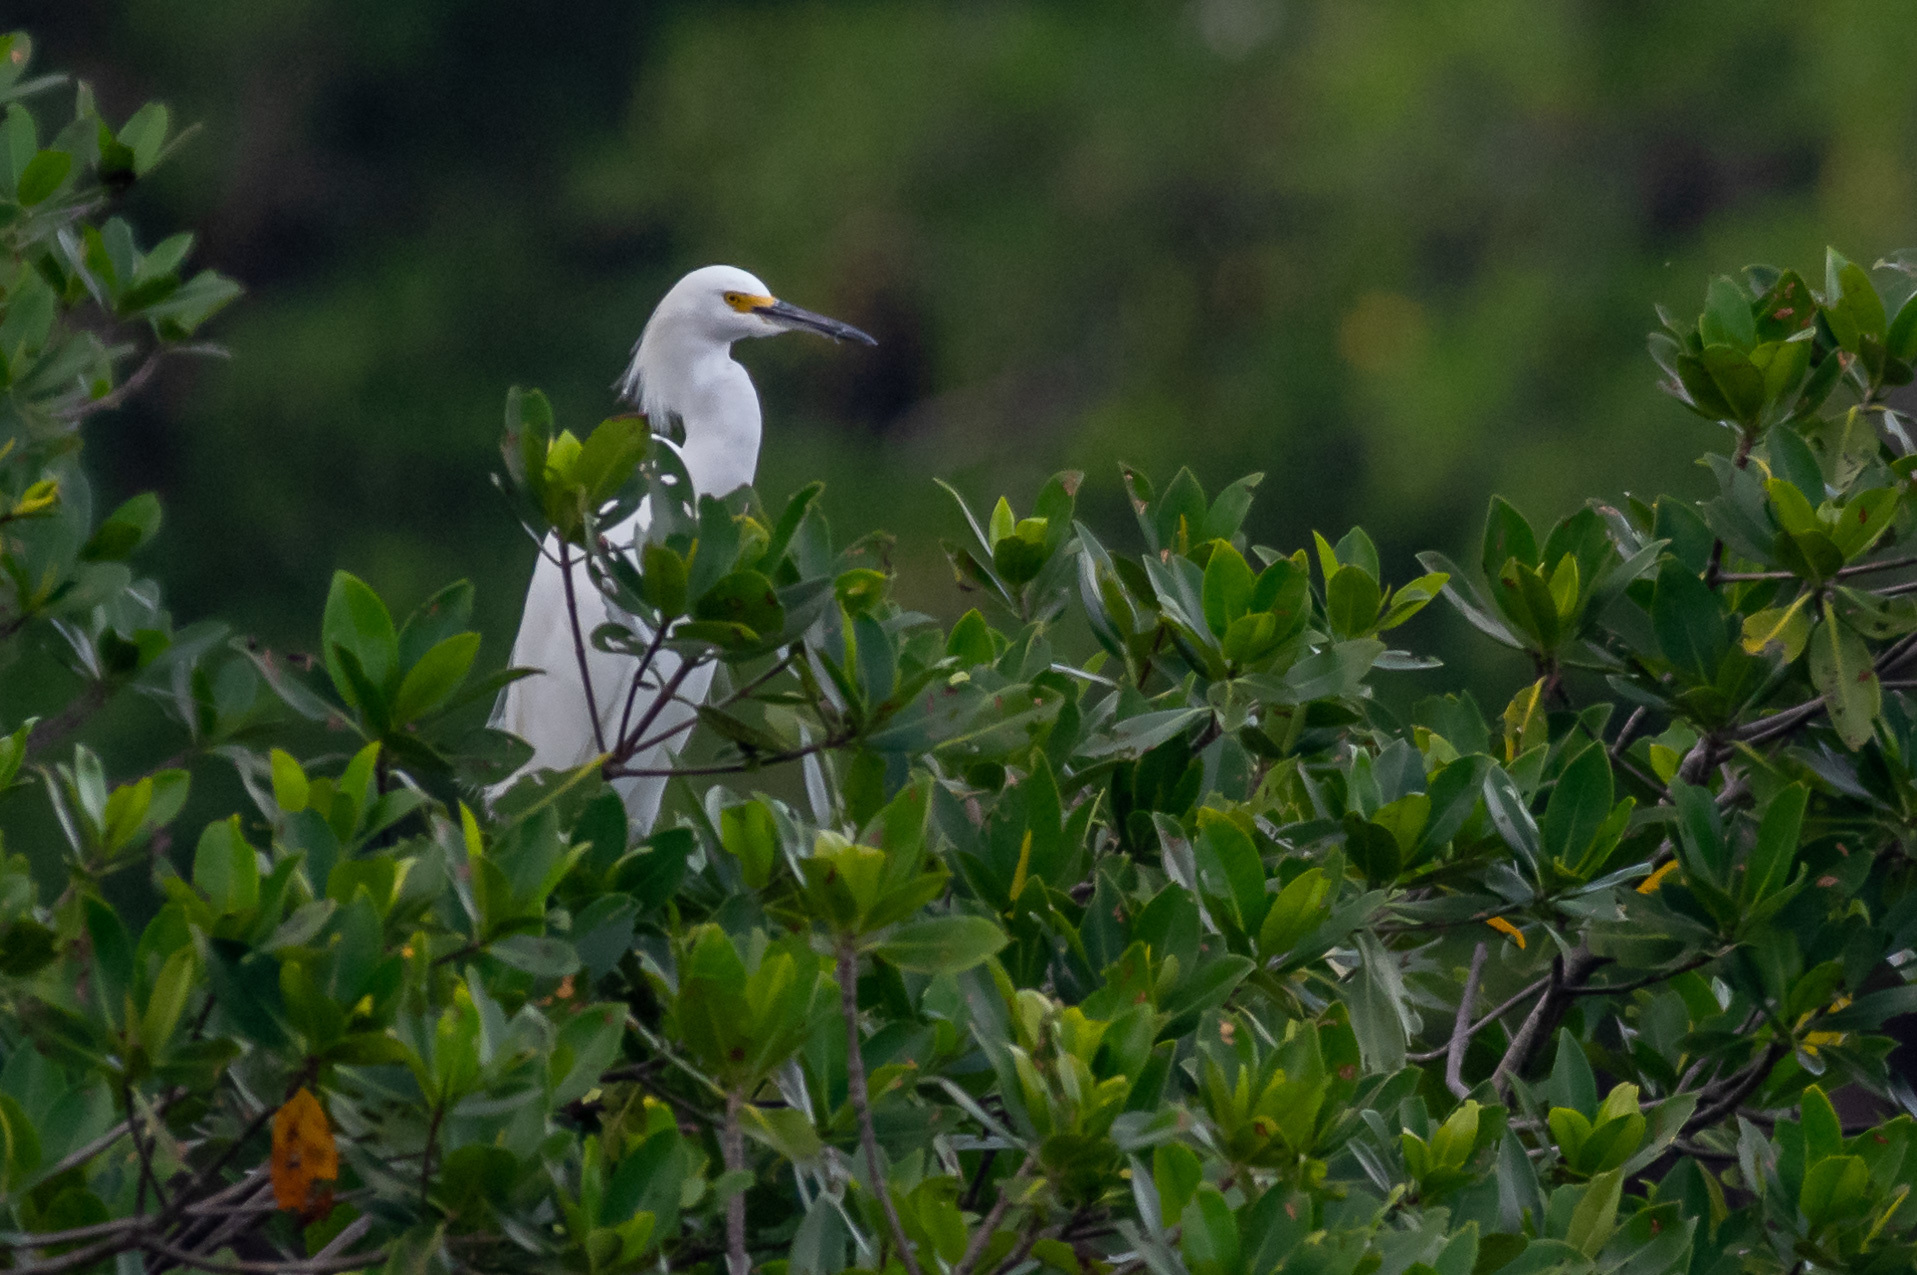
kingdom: Animalia
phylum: Chordata
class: Aves
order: Pelecaniformes
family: Ardeidae
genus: Egretta
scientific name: Egretta thula
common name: Snowy egret
